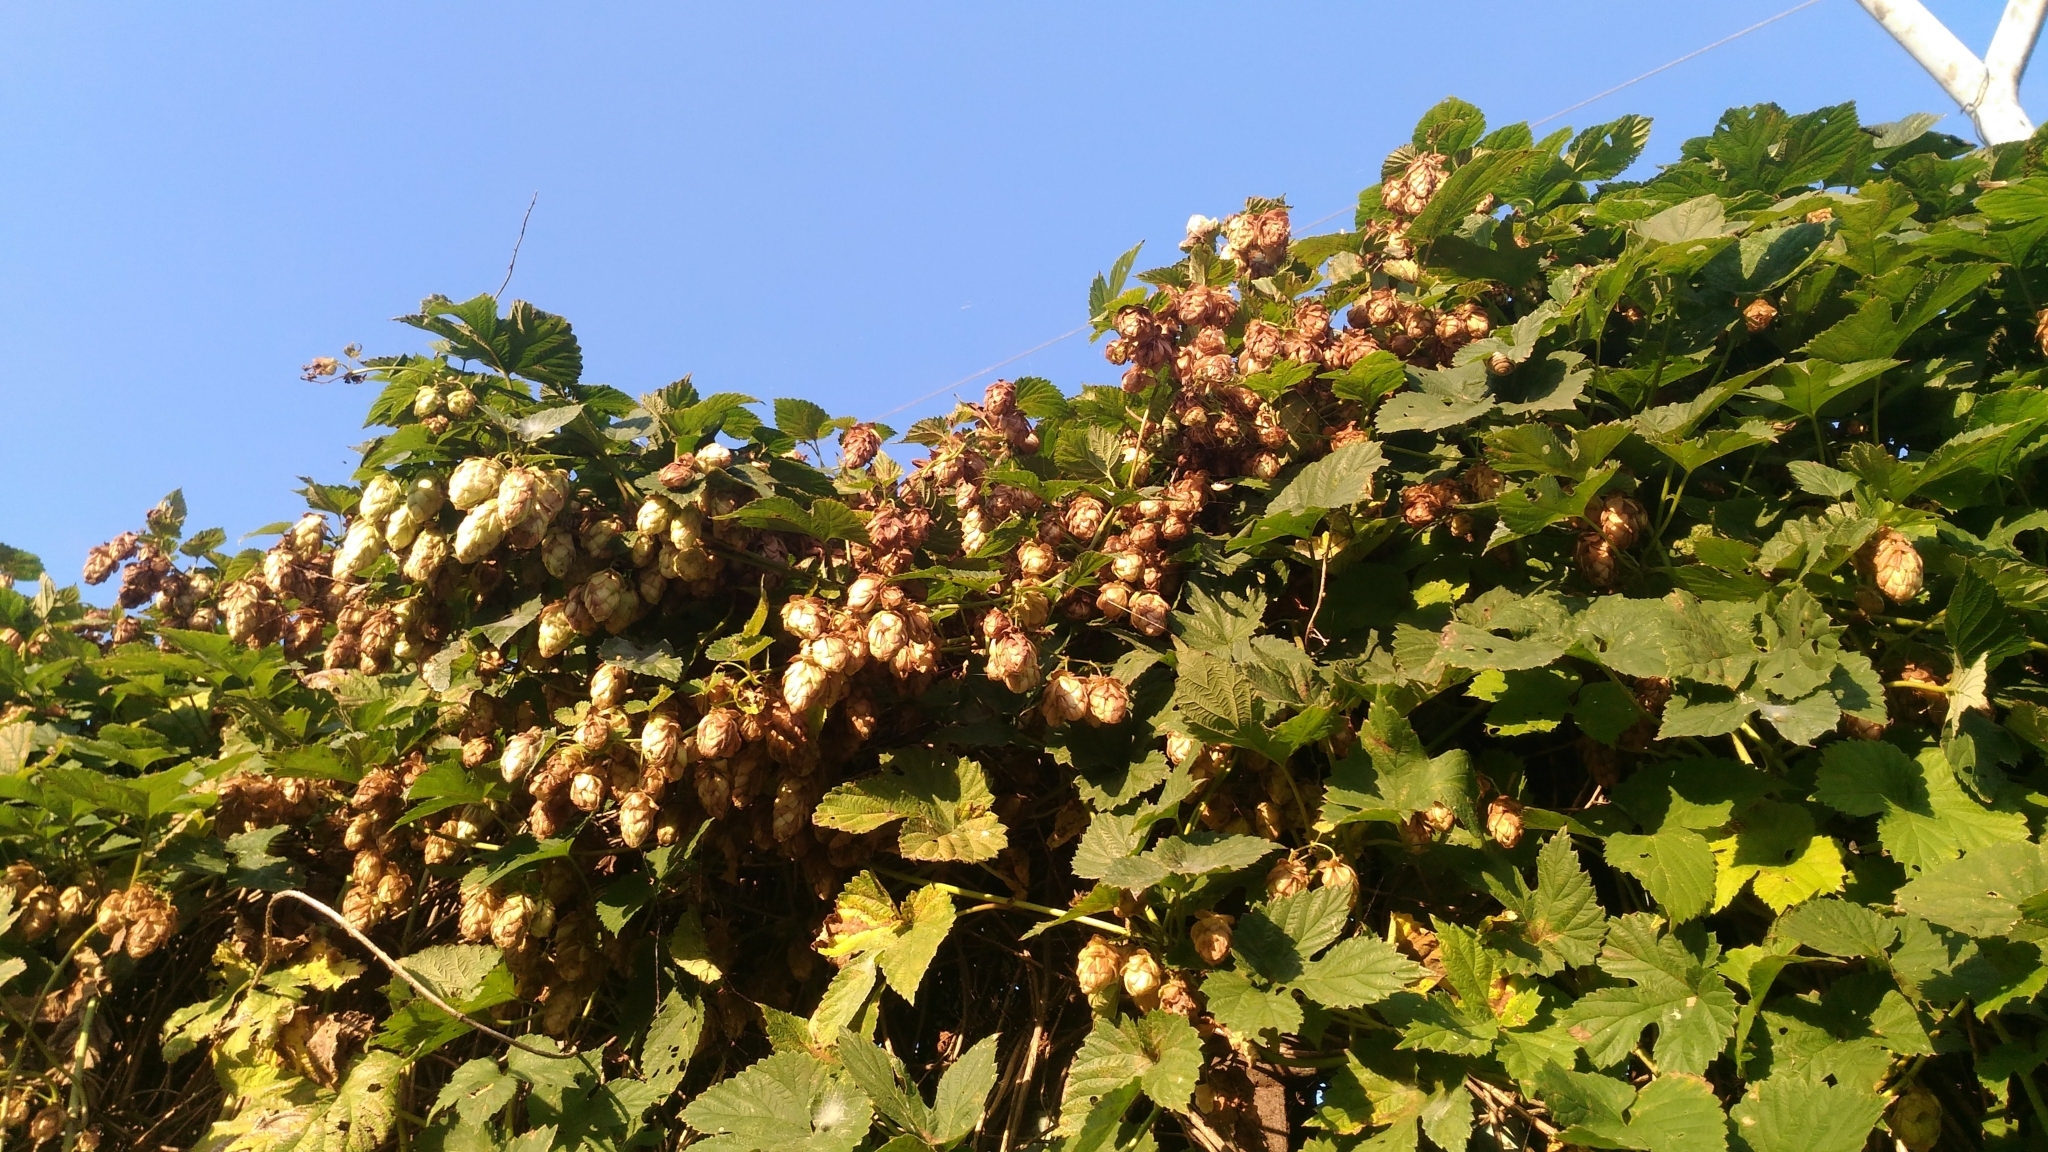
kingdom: Plantae
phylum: Tracheophyta
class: Magnoliopsida
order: Rosales
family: Cannabaceae
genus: Humulus
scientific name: Humulus lupulus
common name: Hop
